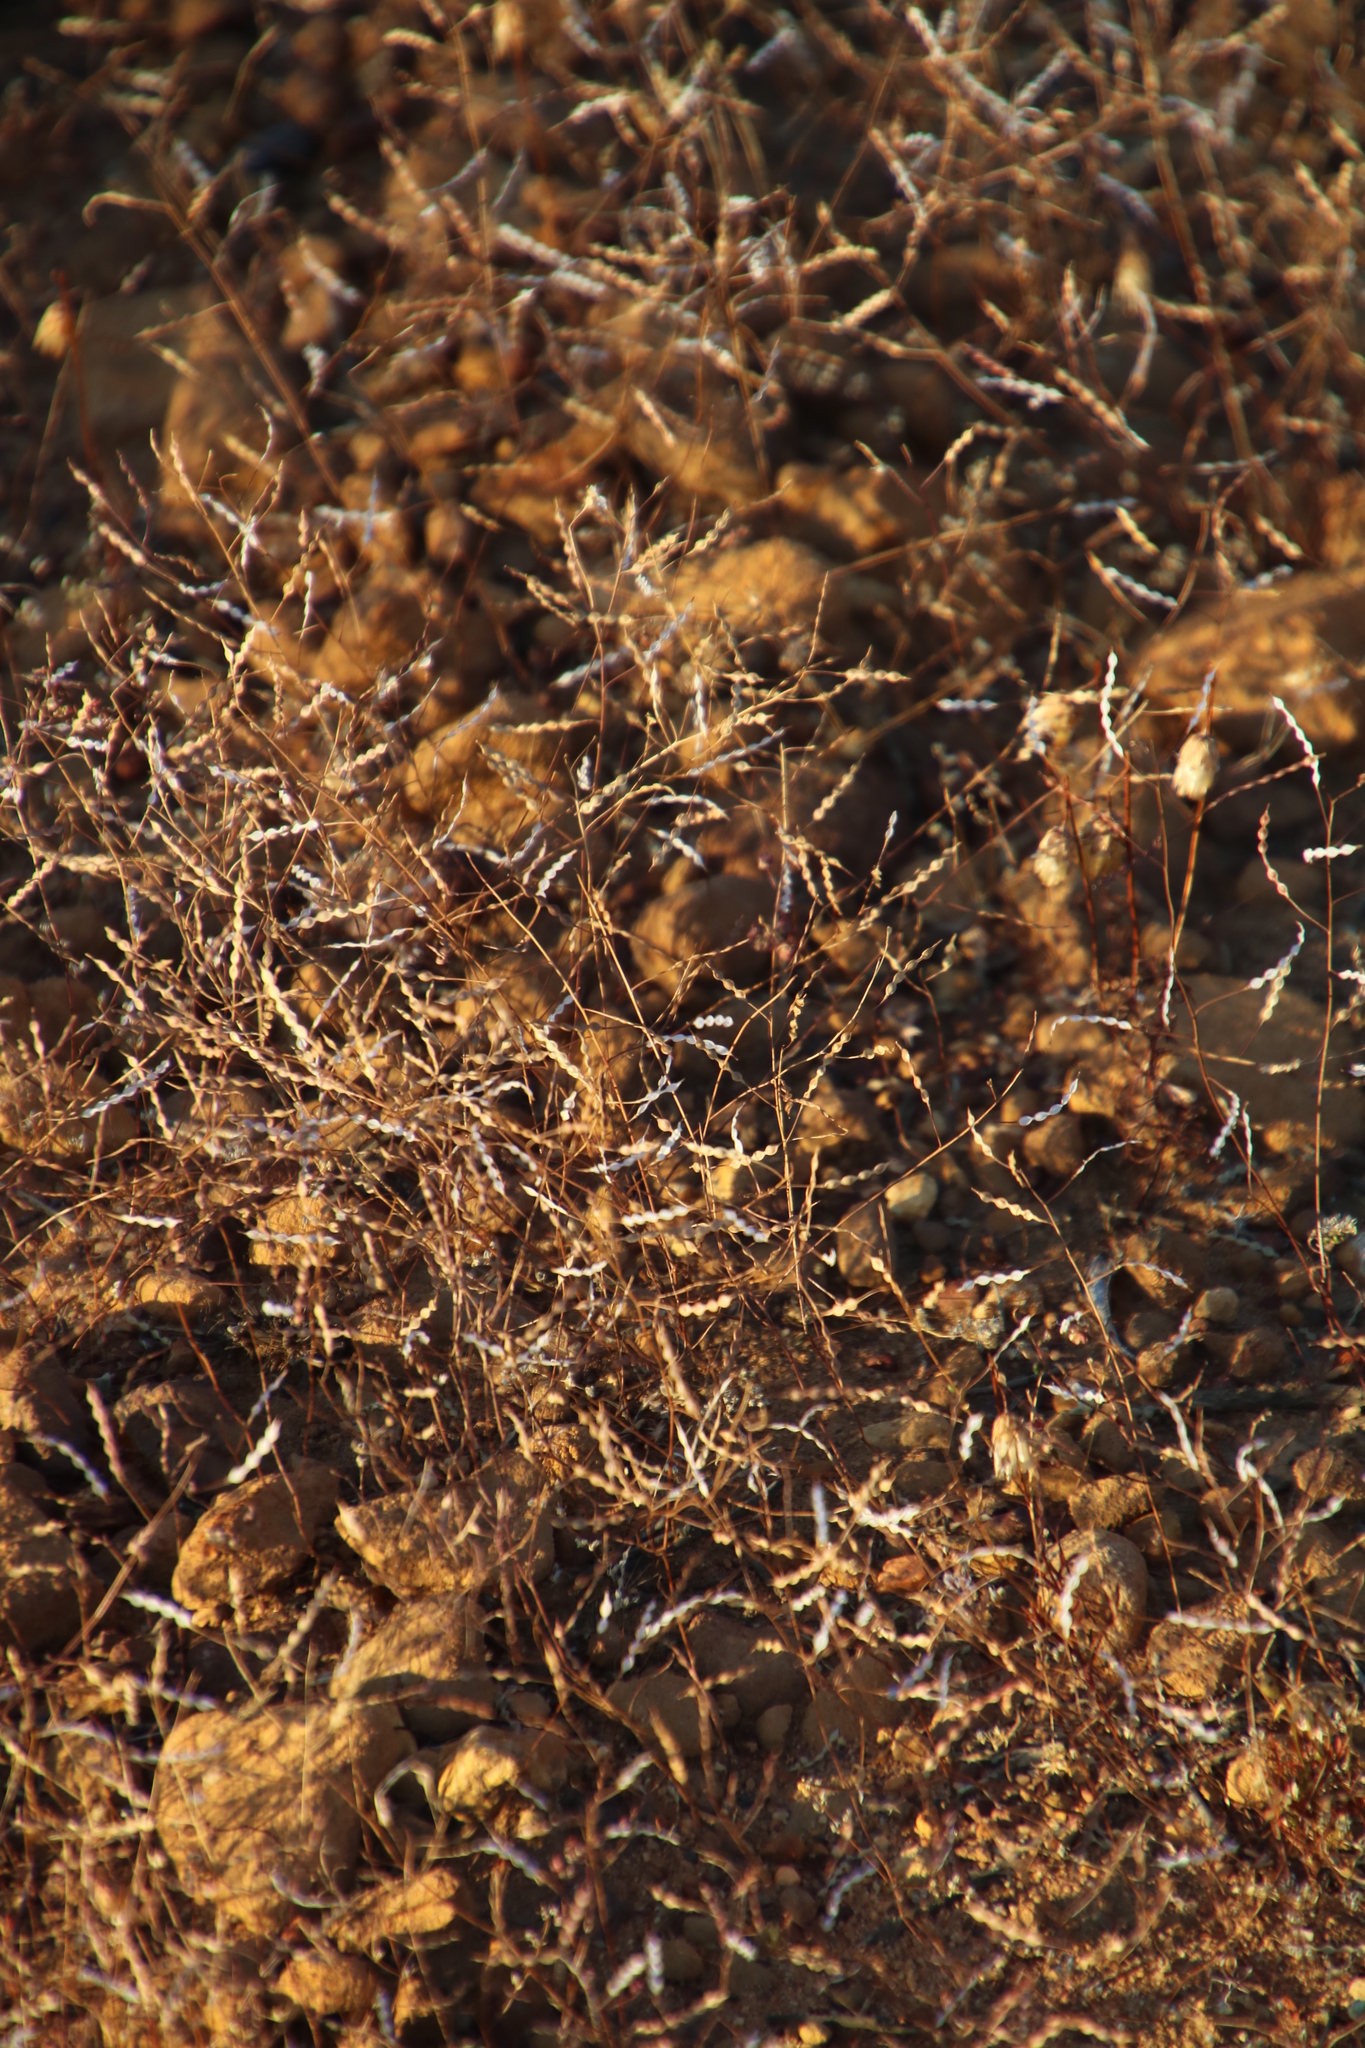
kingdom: Plantae
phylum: Tracheophyta
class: Magnoliopsida
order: Brassicales
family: Brassicaceae
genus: Heliophila
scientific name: Heliophila pinnata
